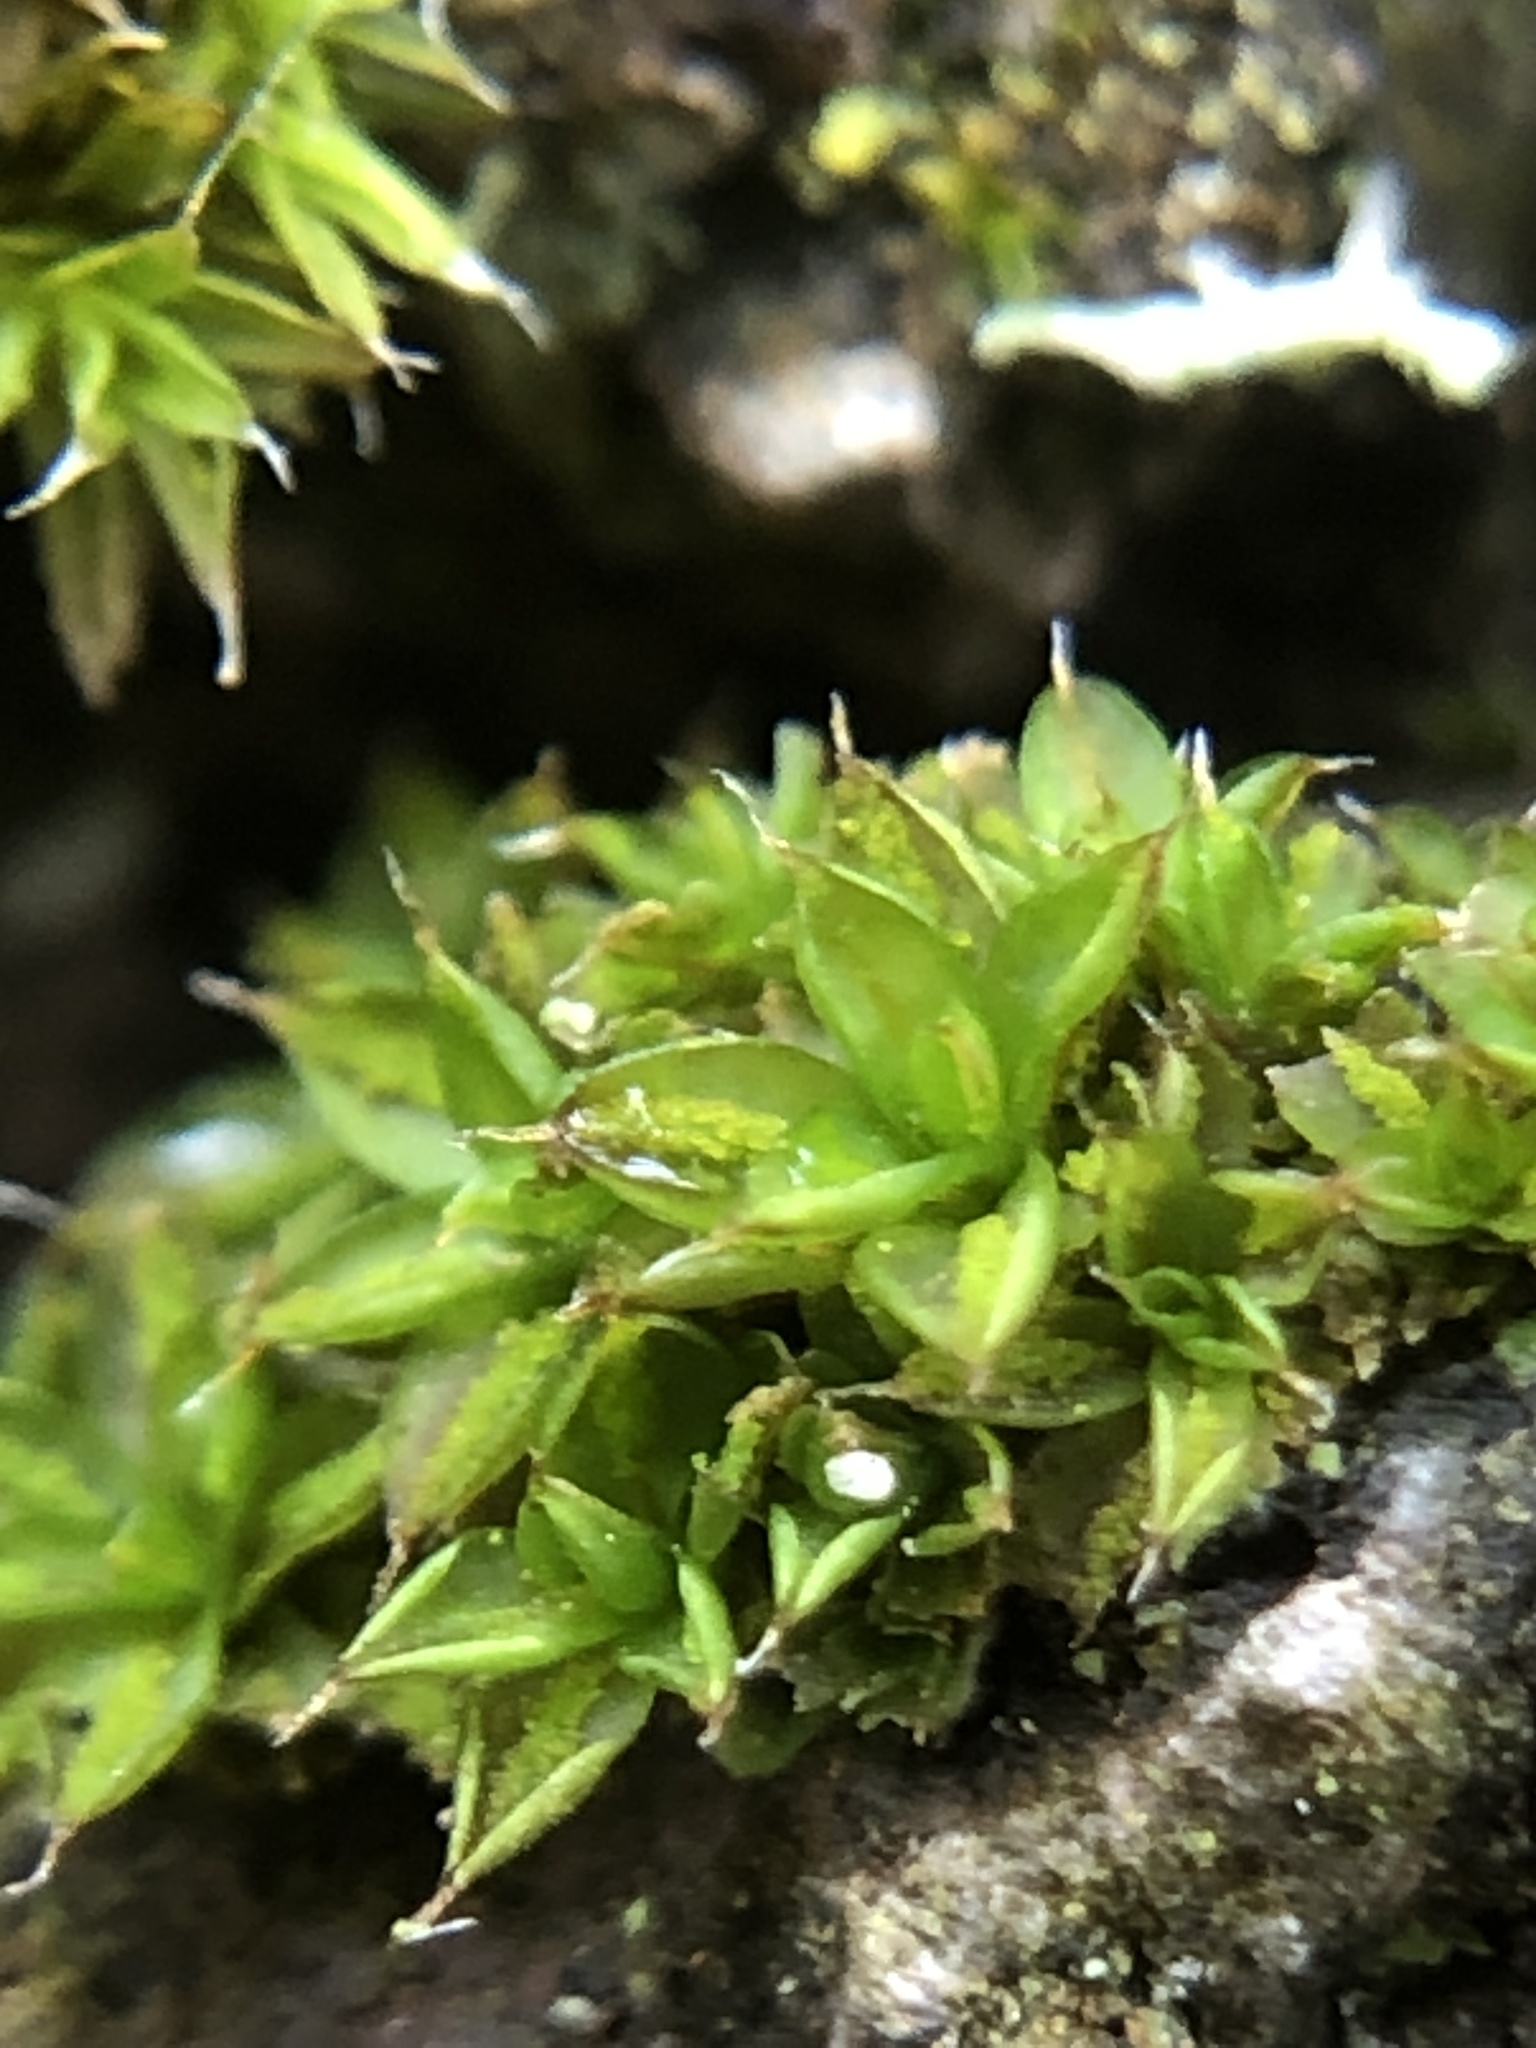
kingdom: Plantae
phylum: Bryophyta
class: Bryopsida
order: Pottiales
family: Pottiaceae
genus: Syntrichia
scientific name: Syntrichia papillosa
